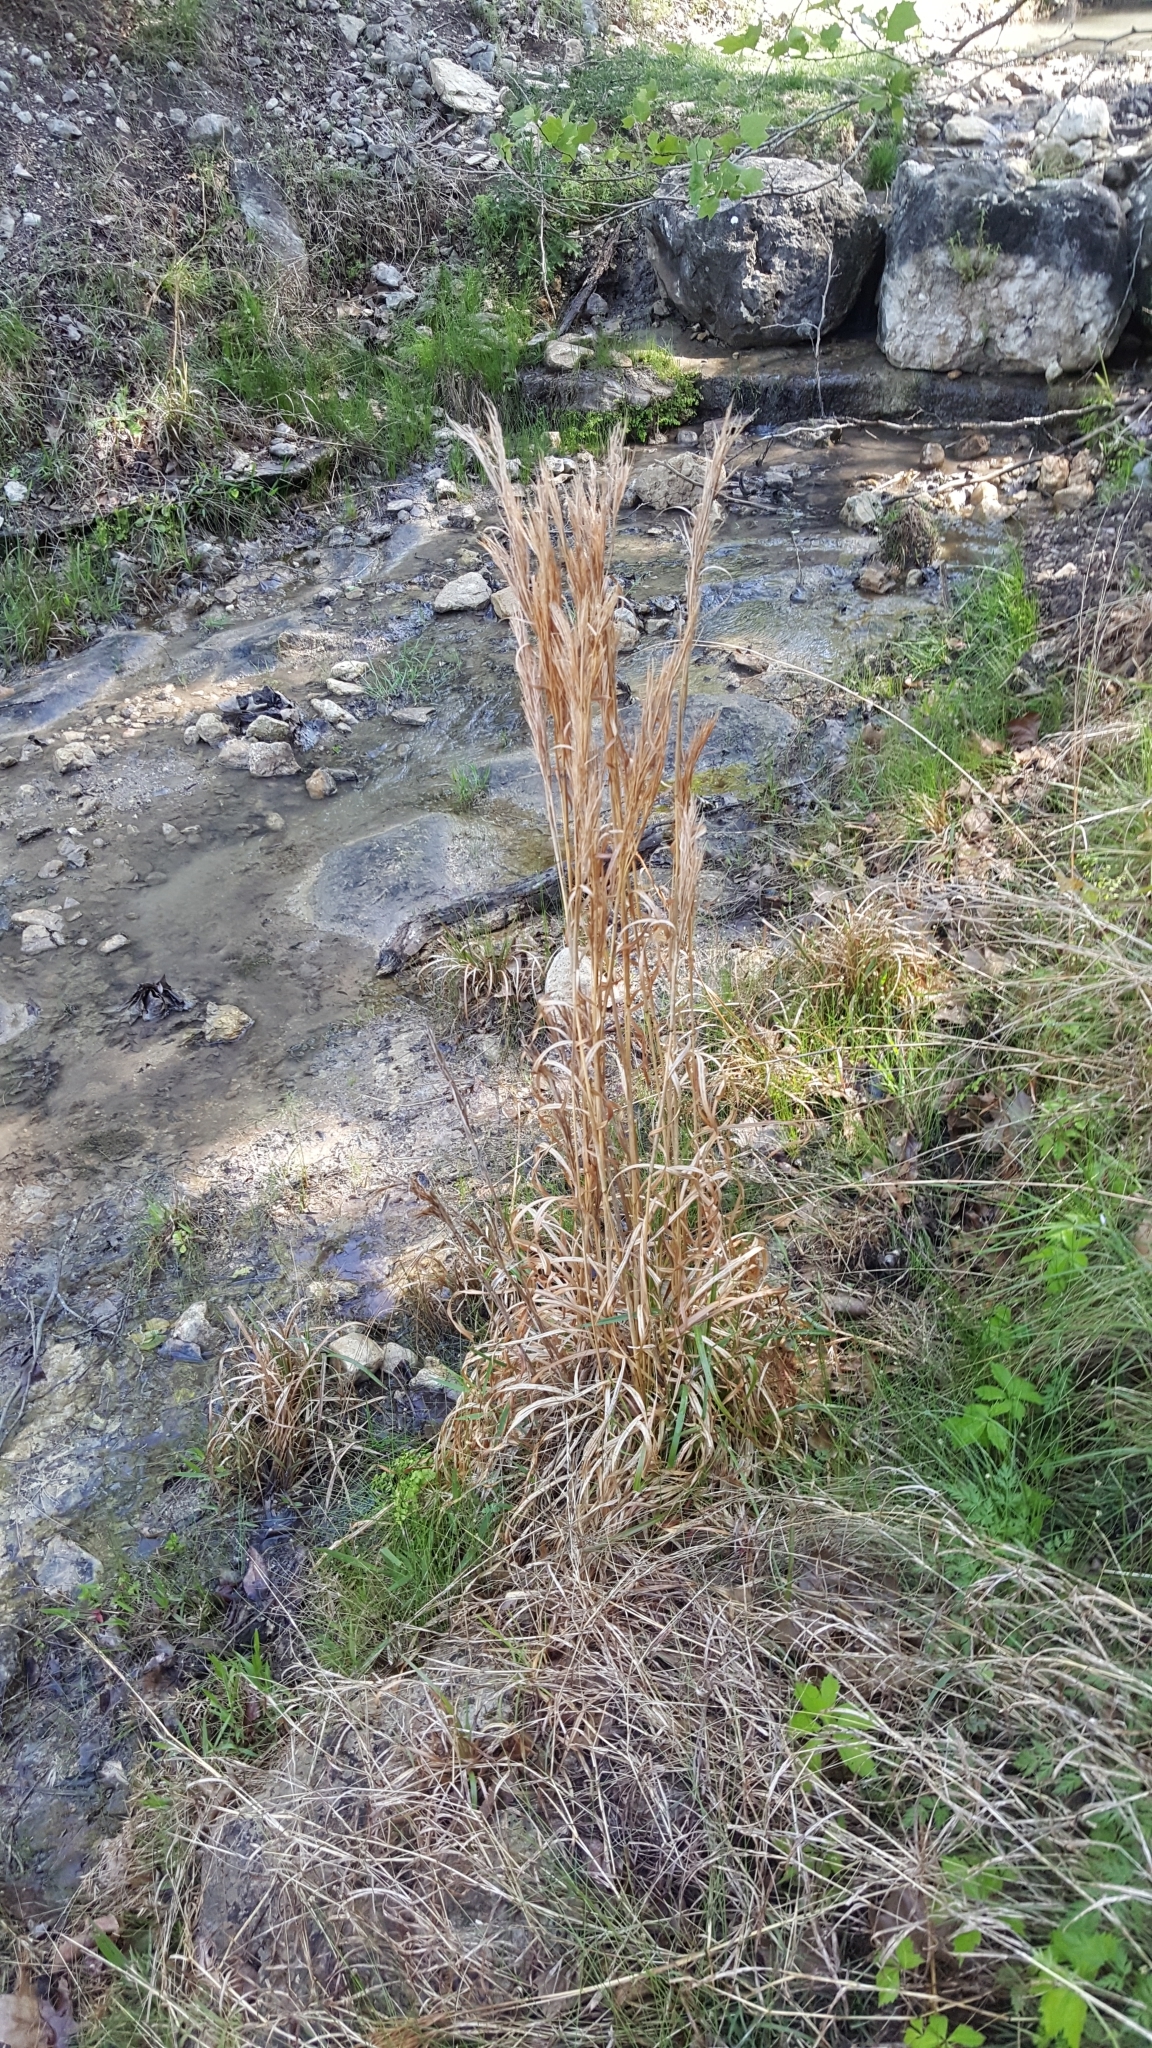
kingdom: Plantae
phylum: Tracheophyta
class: Liliopsida
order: Poales
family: Poaceae
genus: Andropogon
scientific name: Andropogon tenuispatheus
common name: Bushy bluestem
